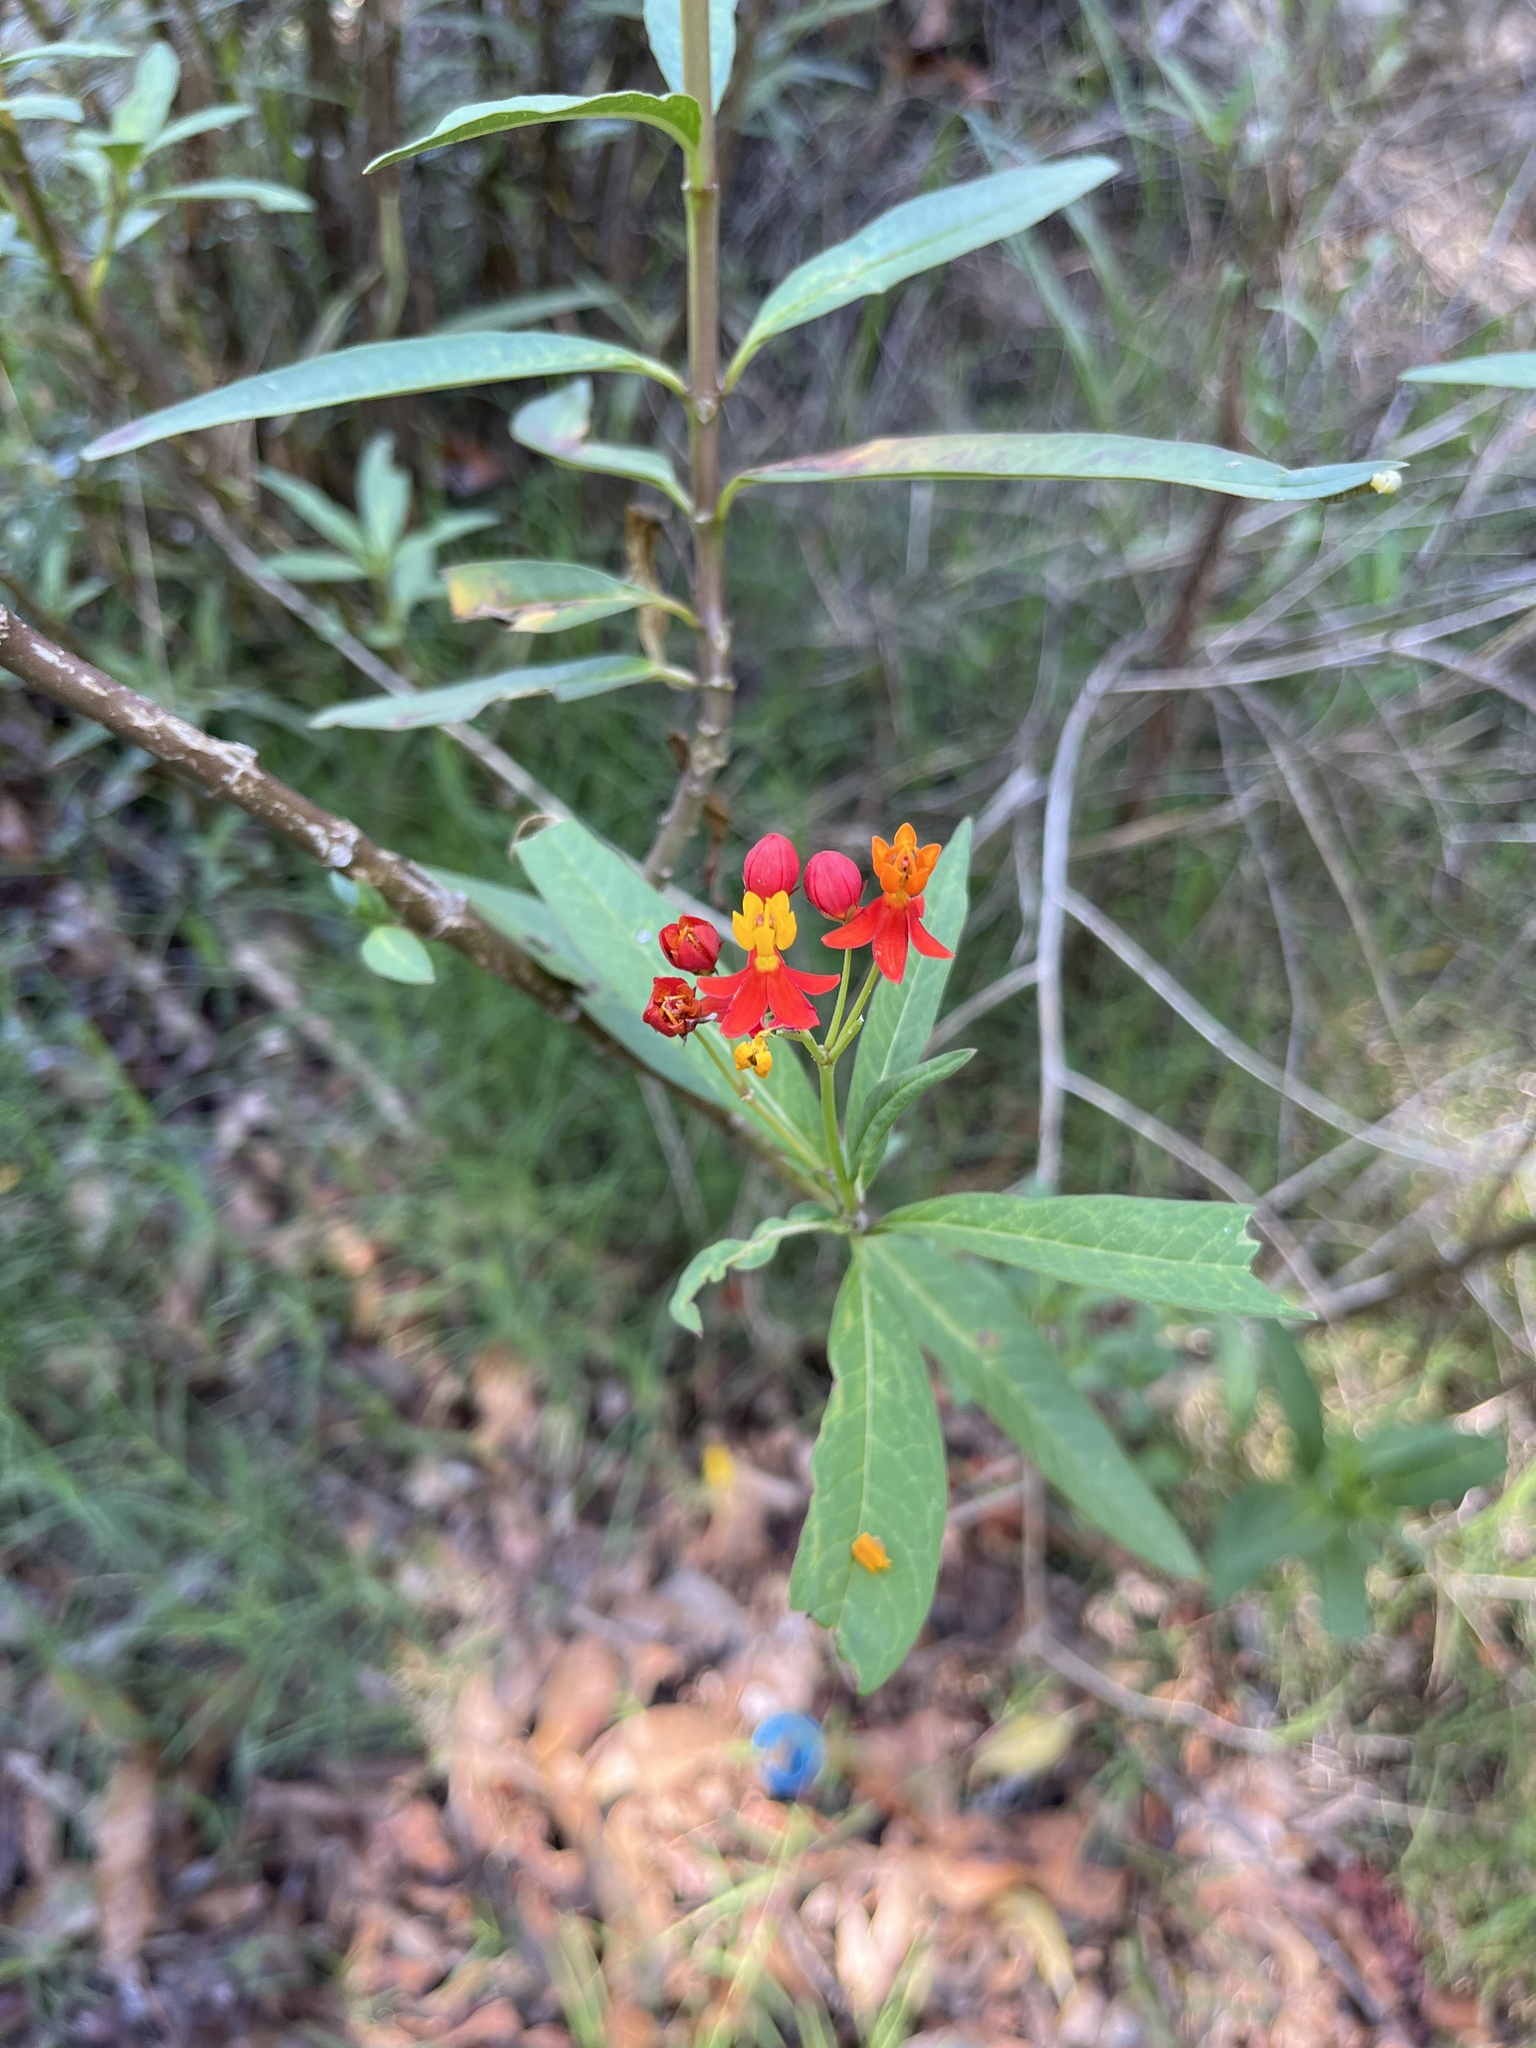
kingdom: Plantae
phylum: Tracheophyta
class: Magnoliopsida
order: Gentianales
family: Apocynaceae
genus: Asclepias
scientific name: Asclepias curassavica
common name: Bloodflower
